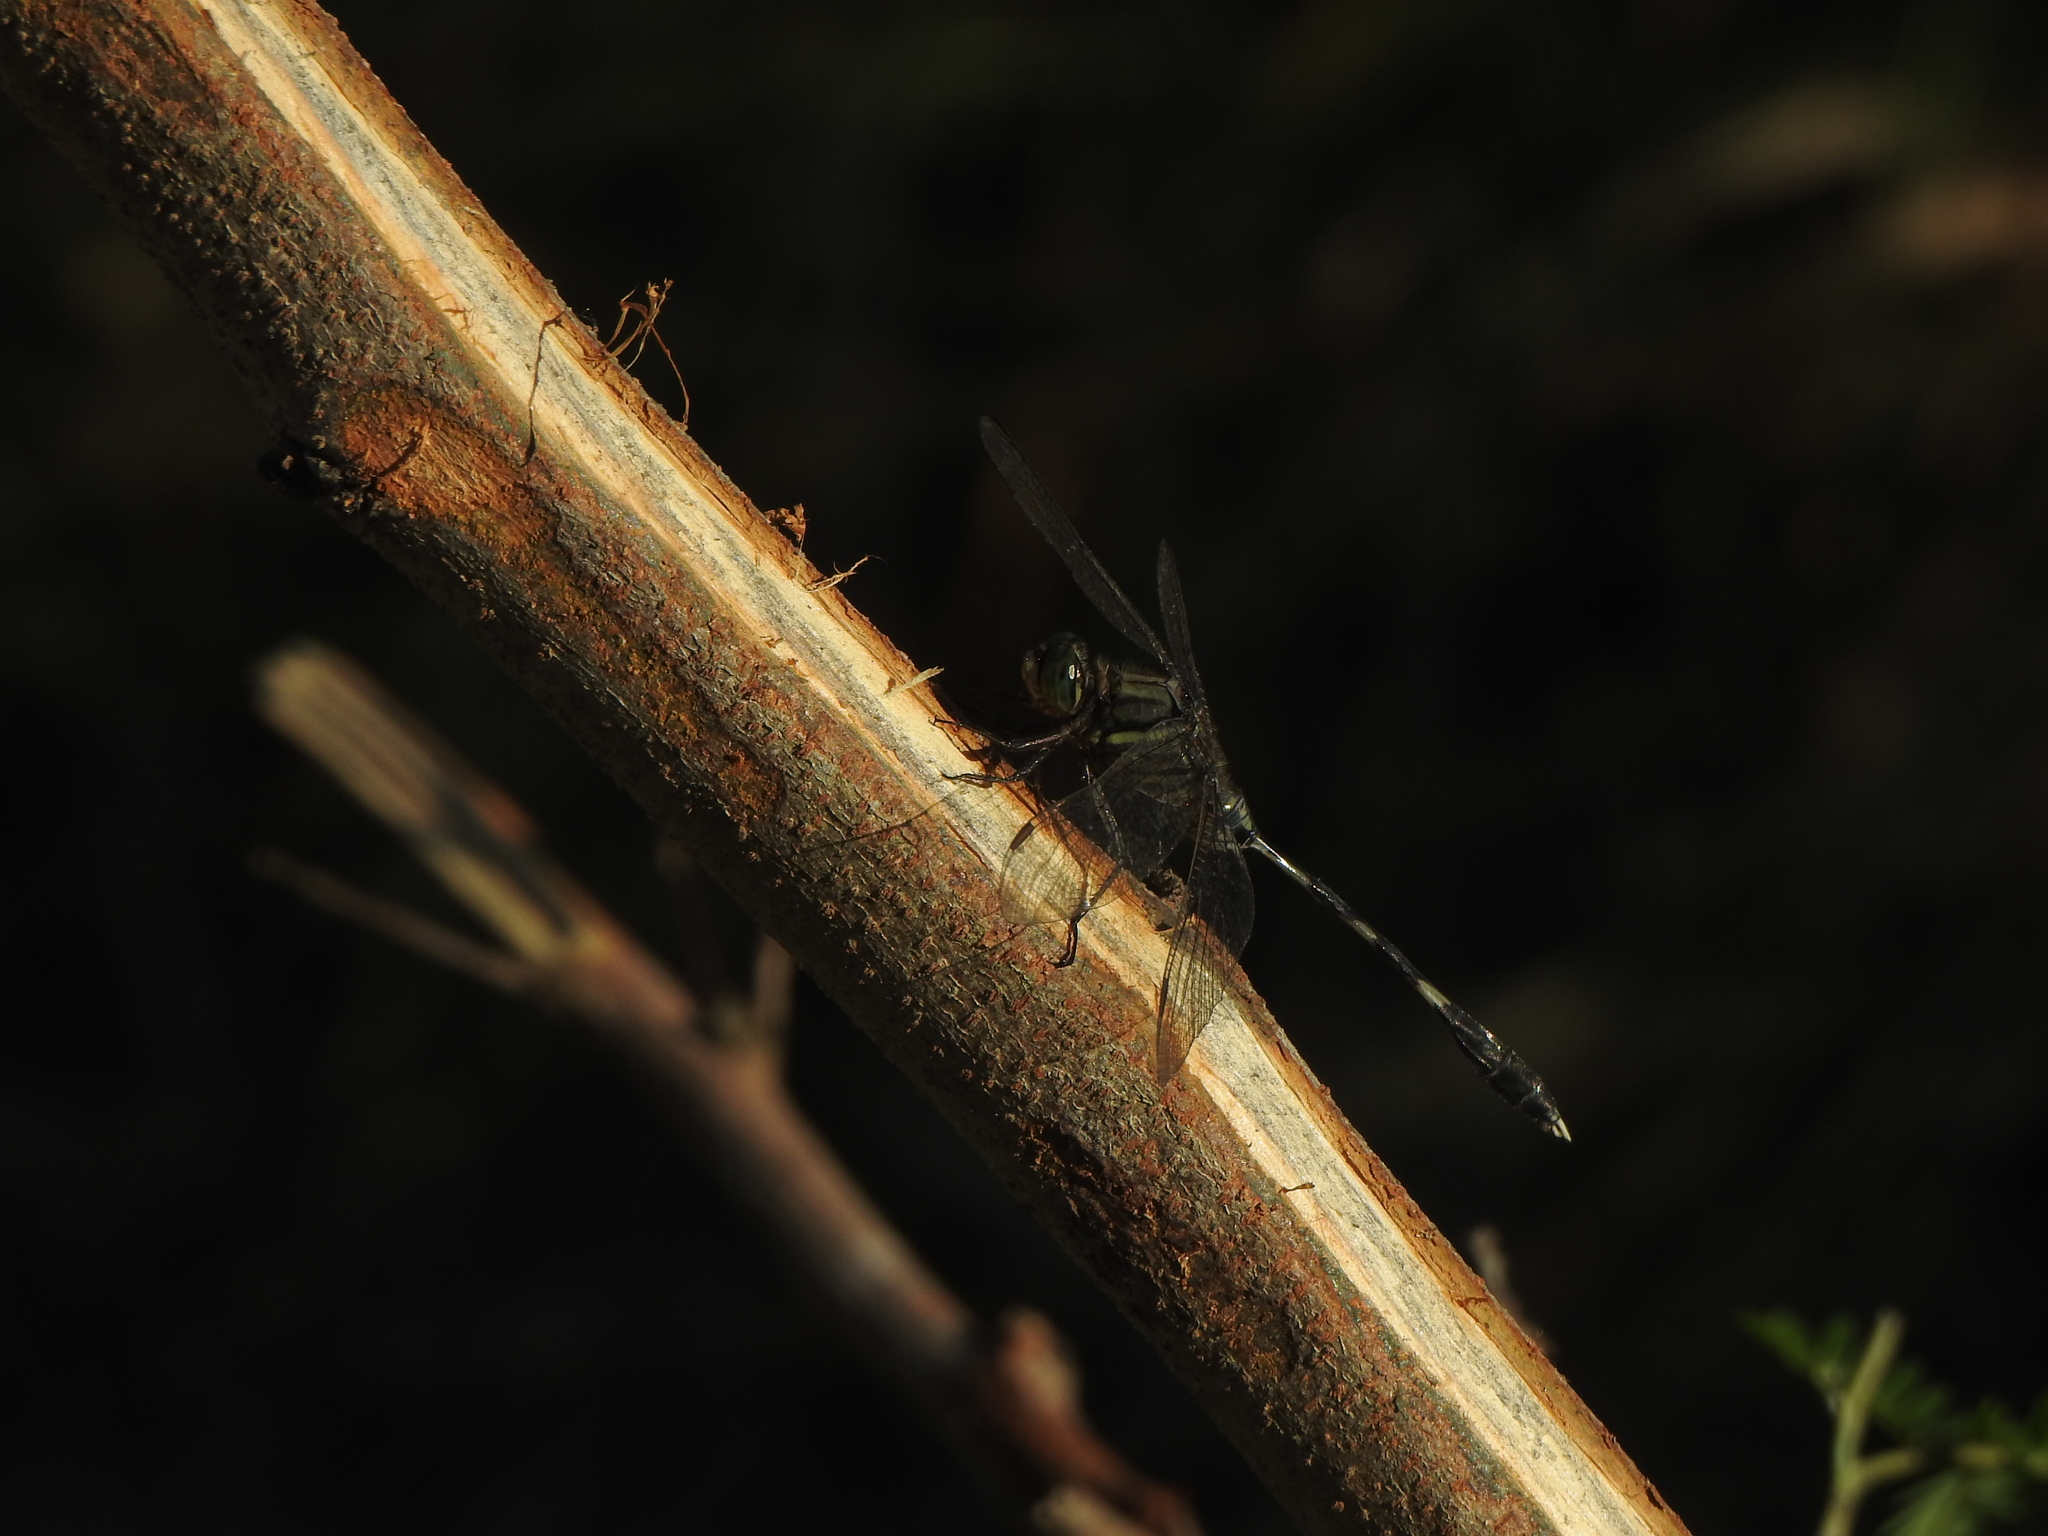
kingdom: Animalia
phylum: Arthropoda
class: Insecta
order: Odonata
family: Libellulidae
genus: Orthetrum
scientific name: Orthetrum sabina
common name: Slender skimmer
